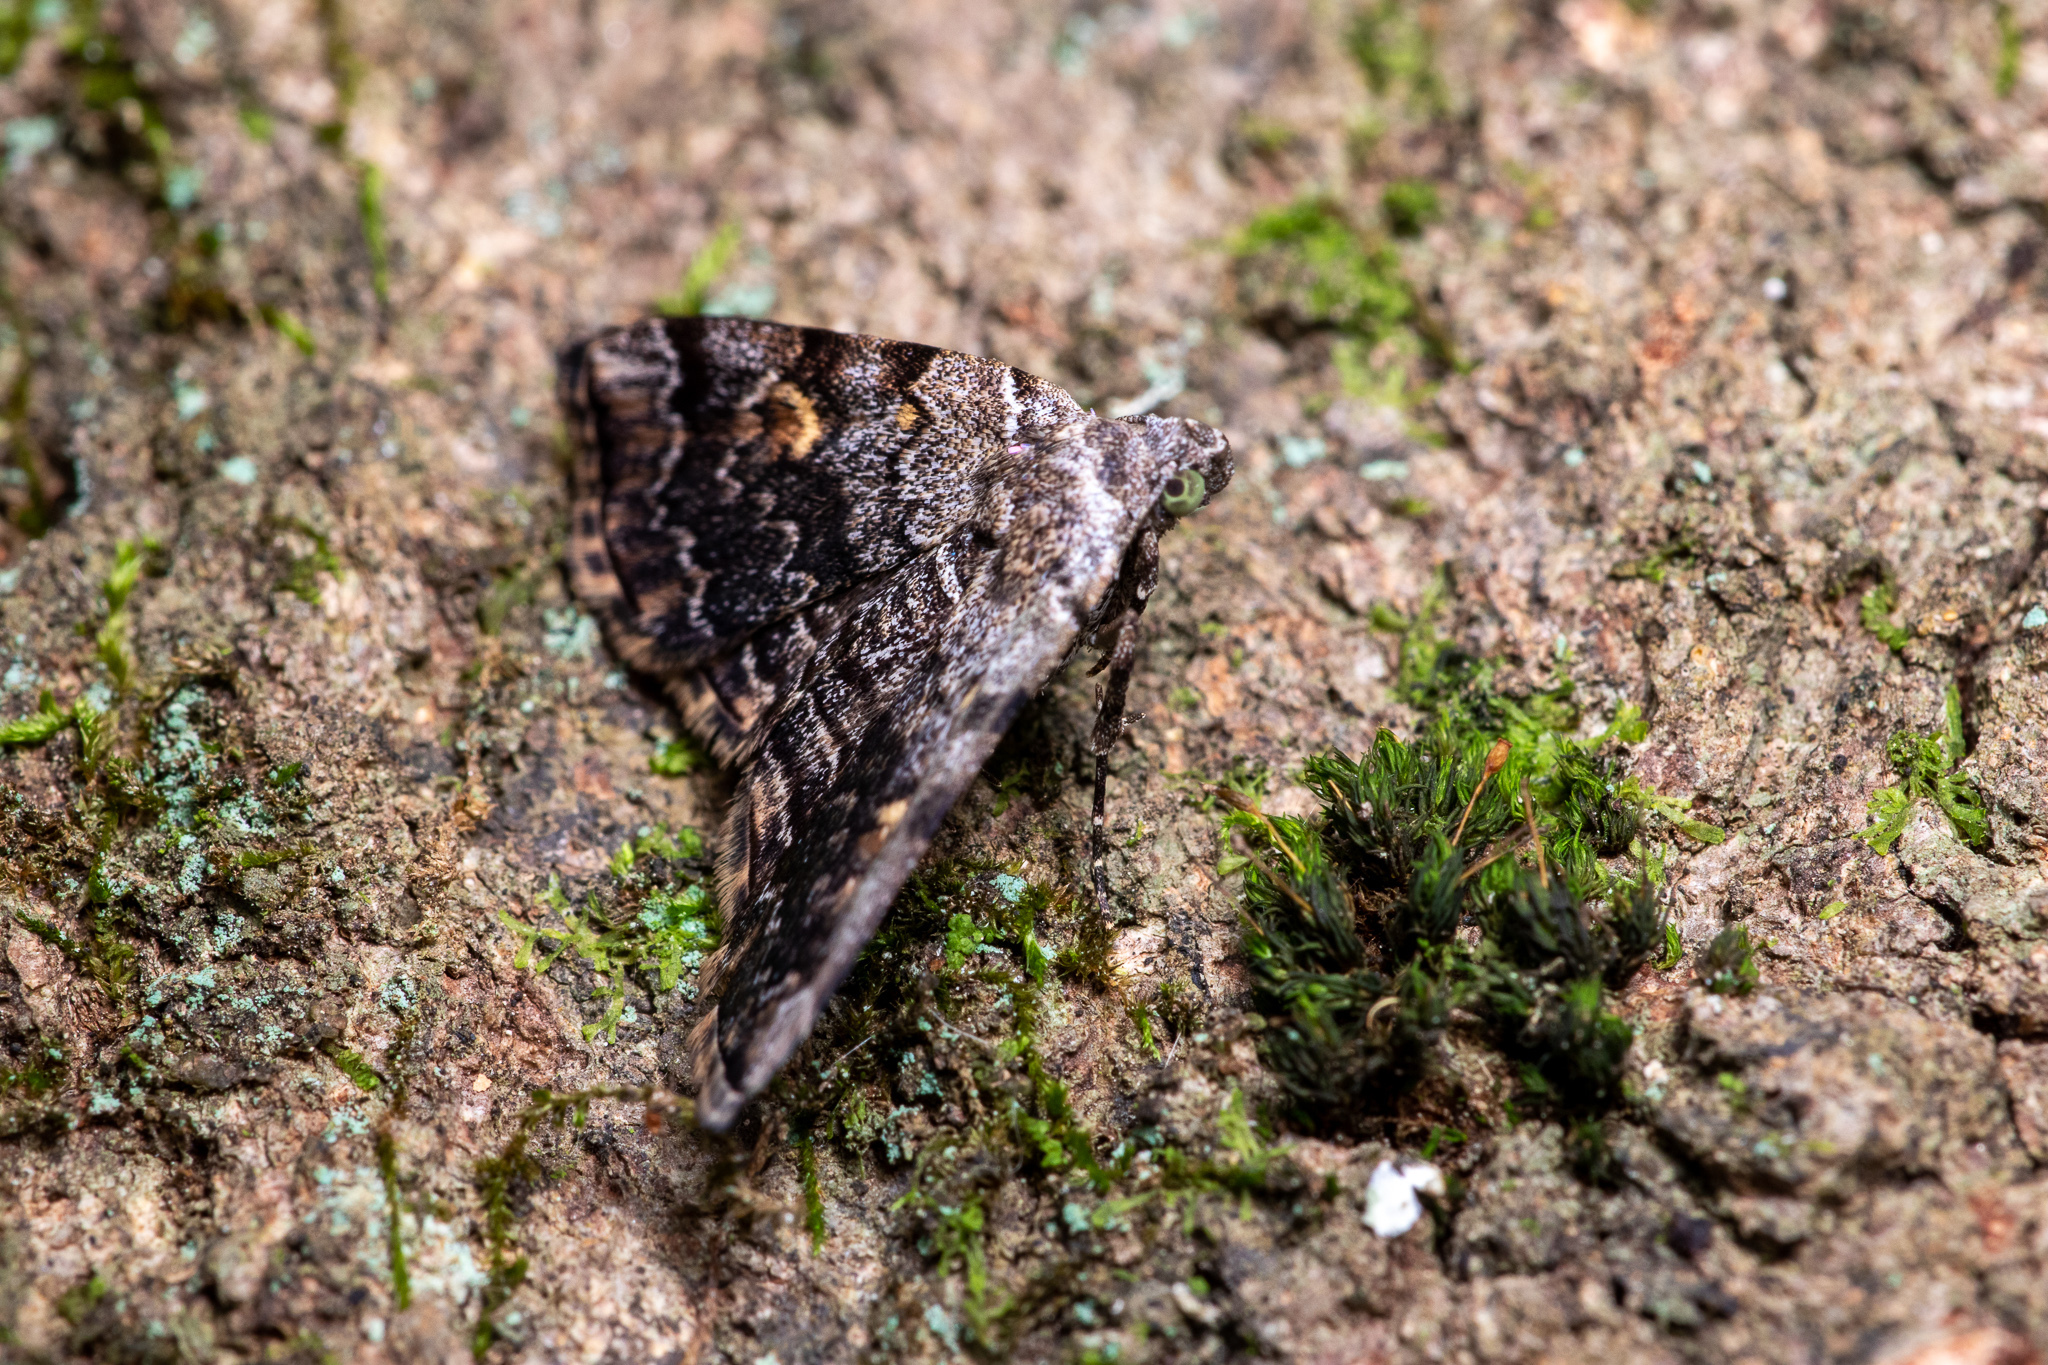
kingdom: Animalia
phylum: Arthropoda
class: Insecta
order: Lepidoptera
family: Erebidae
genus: Idia
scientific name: Idia americalis
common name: American idia moth
